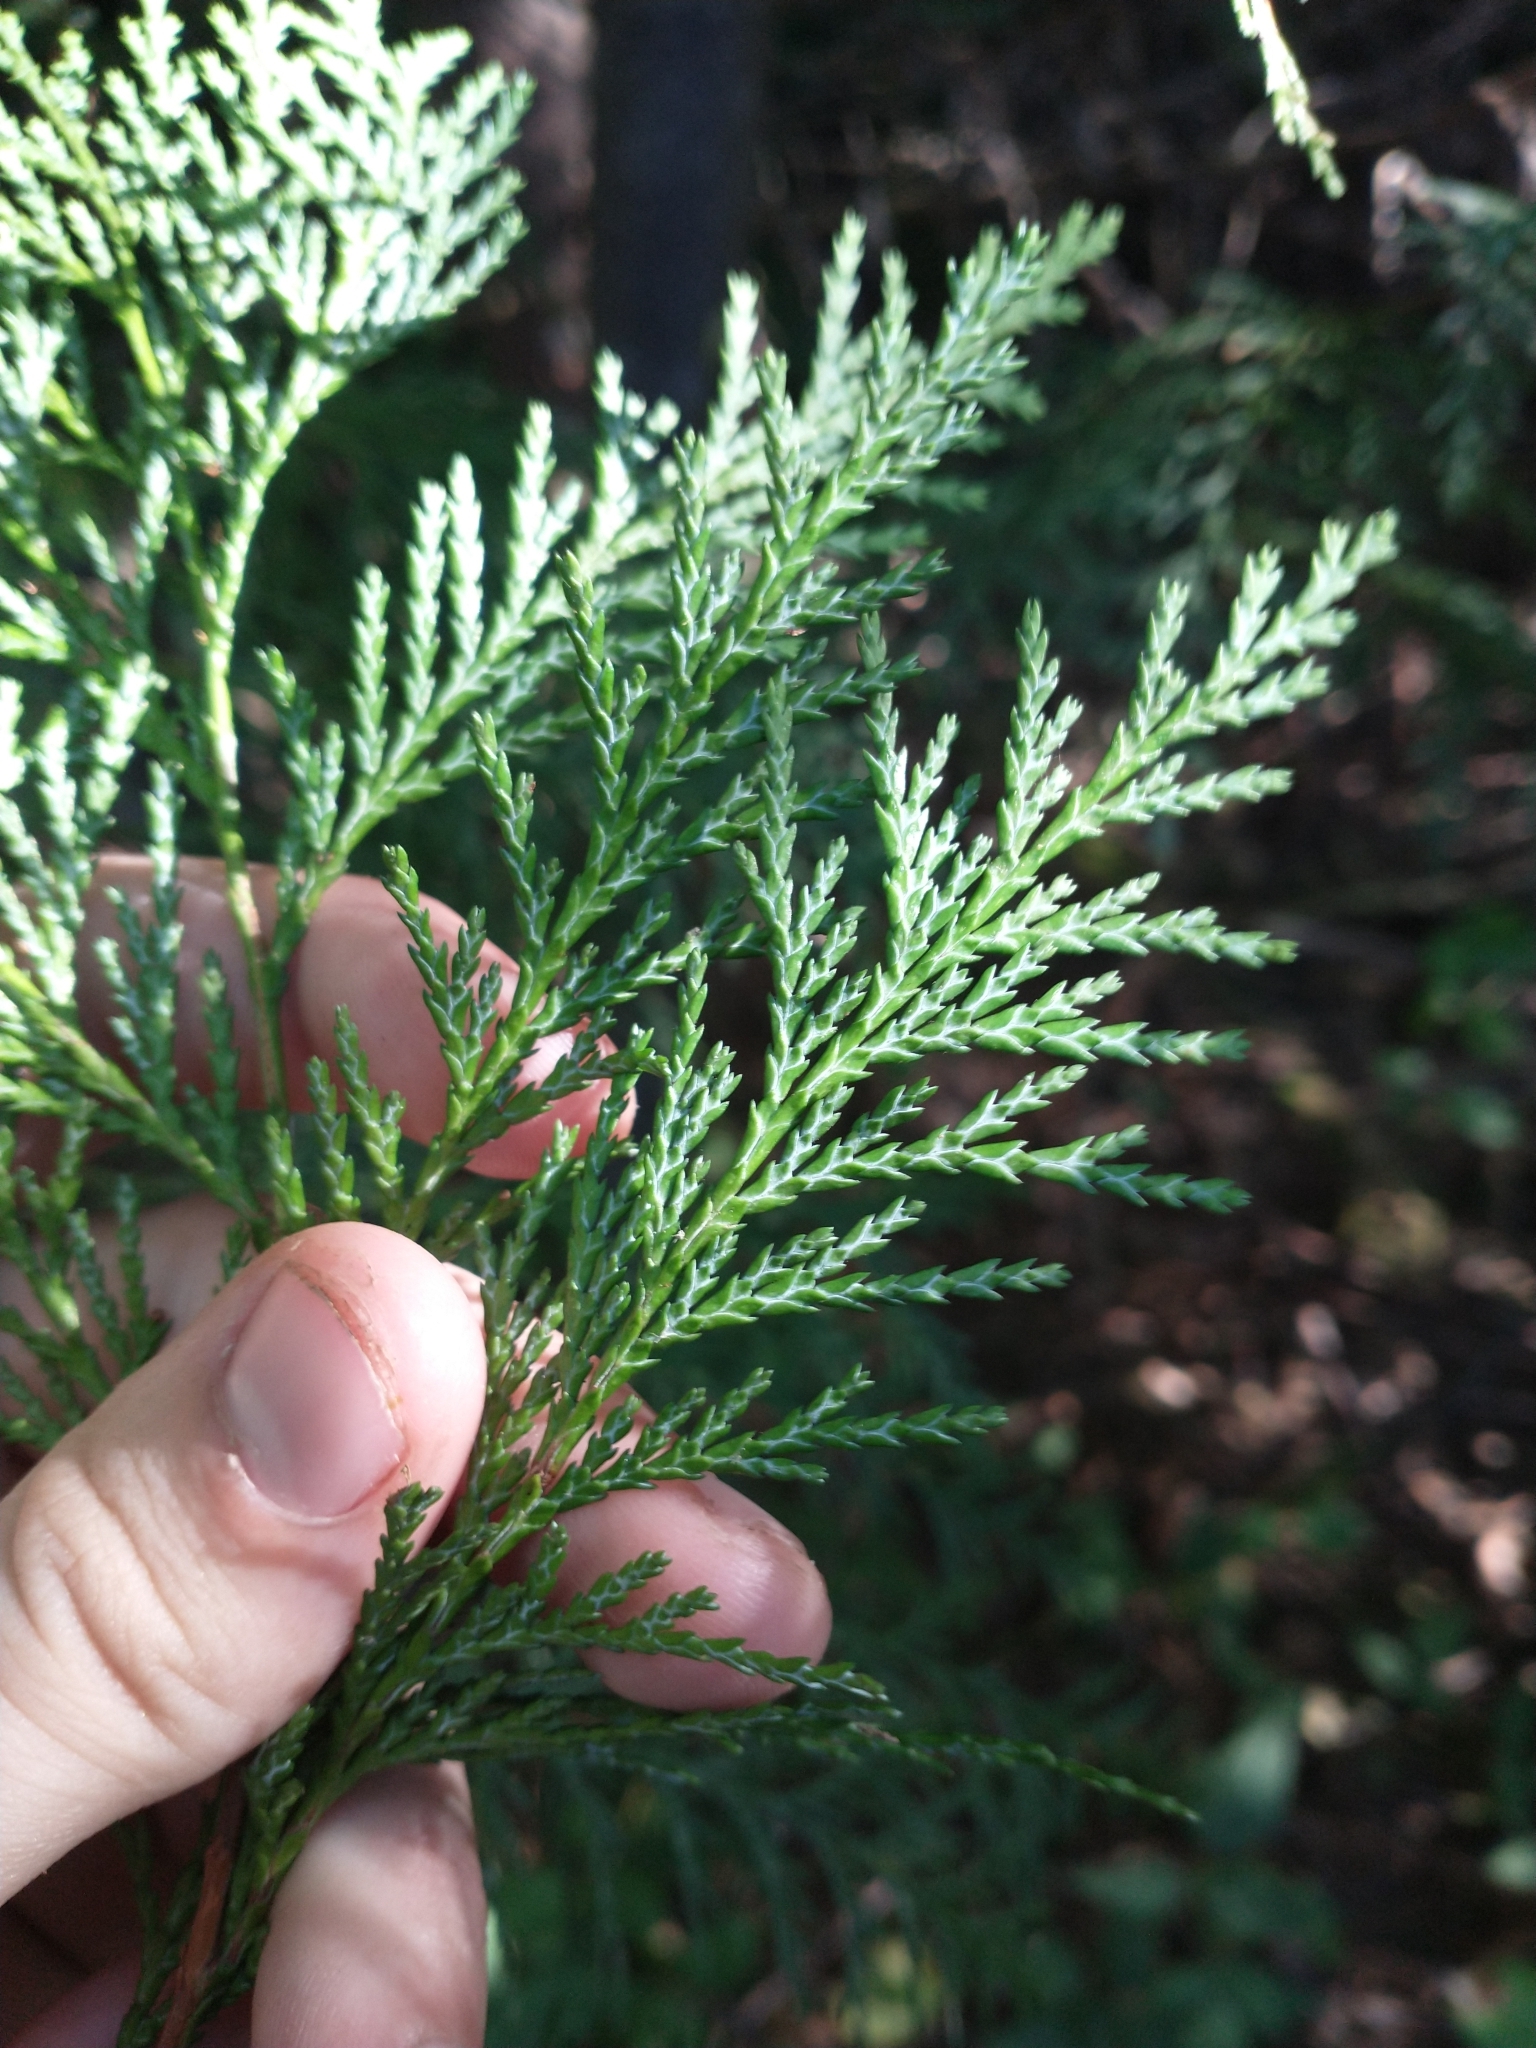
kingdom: Plantae
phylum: Tracheophyta
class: Pinopsida
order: Pinales
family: Cupressaceae
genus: Chamaecyparis
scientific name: Chamaecyparis lawsoniana
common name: Lawson's cypress
